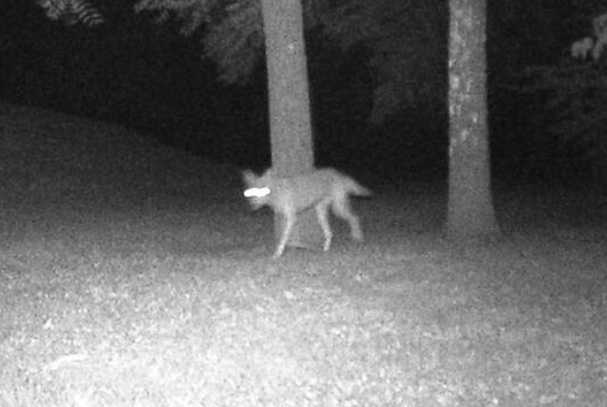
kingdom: Animalia
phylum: Chordata
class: Mammalia
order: Carnivora
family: Canidae
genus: Canis
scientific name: Canis latrans
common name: Coyote
